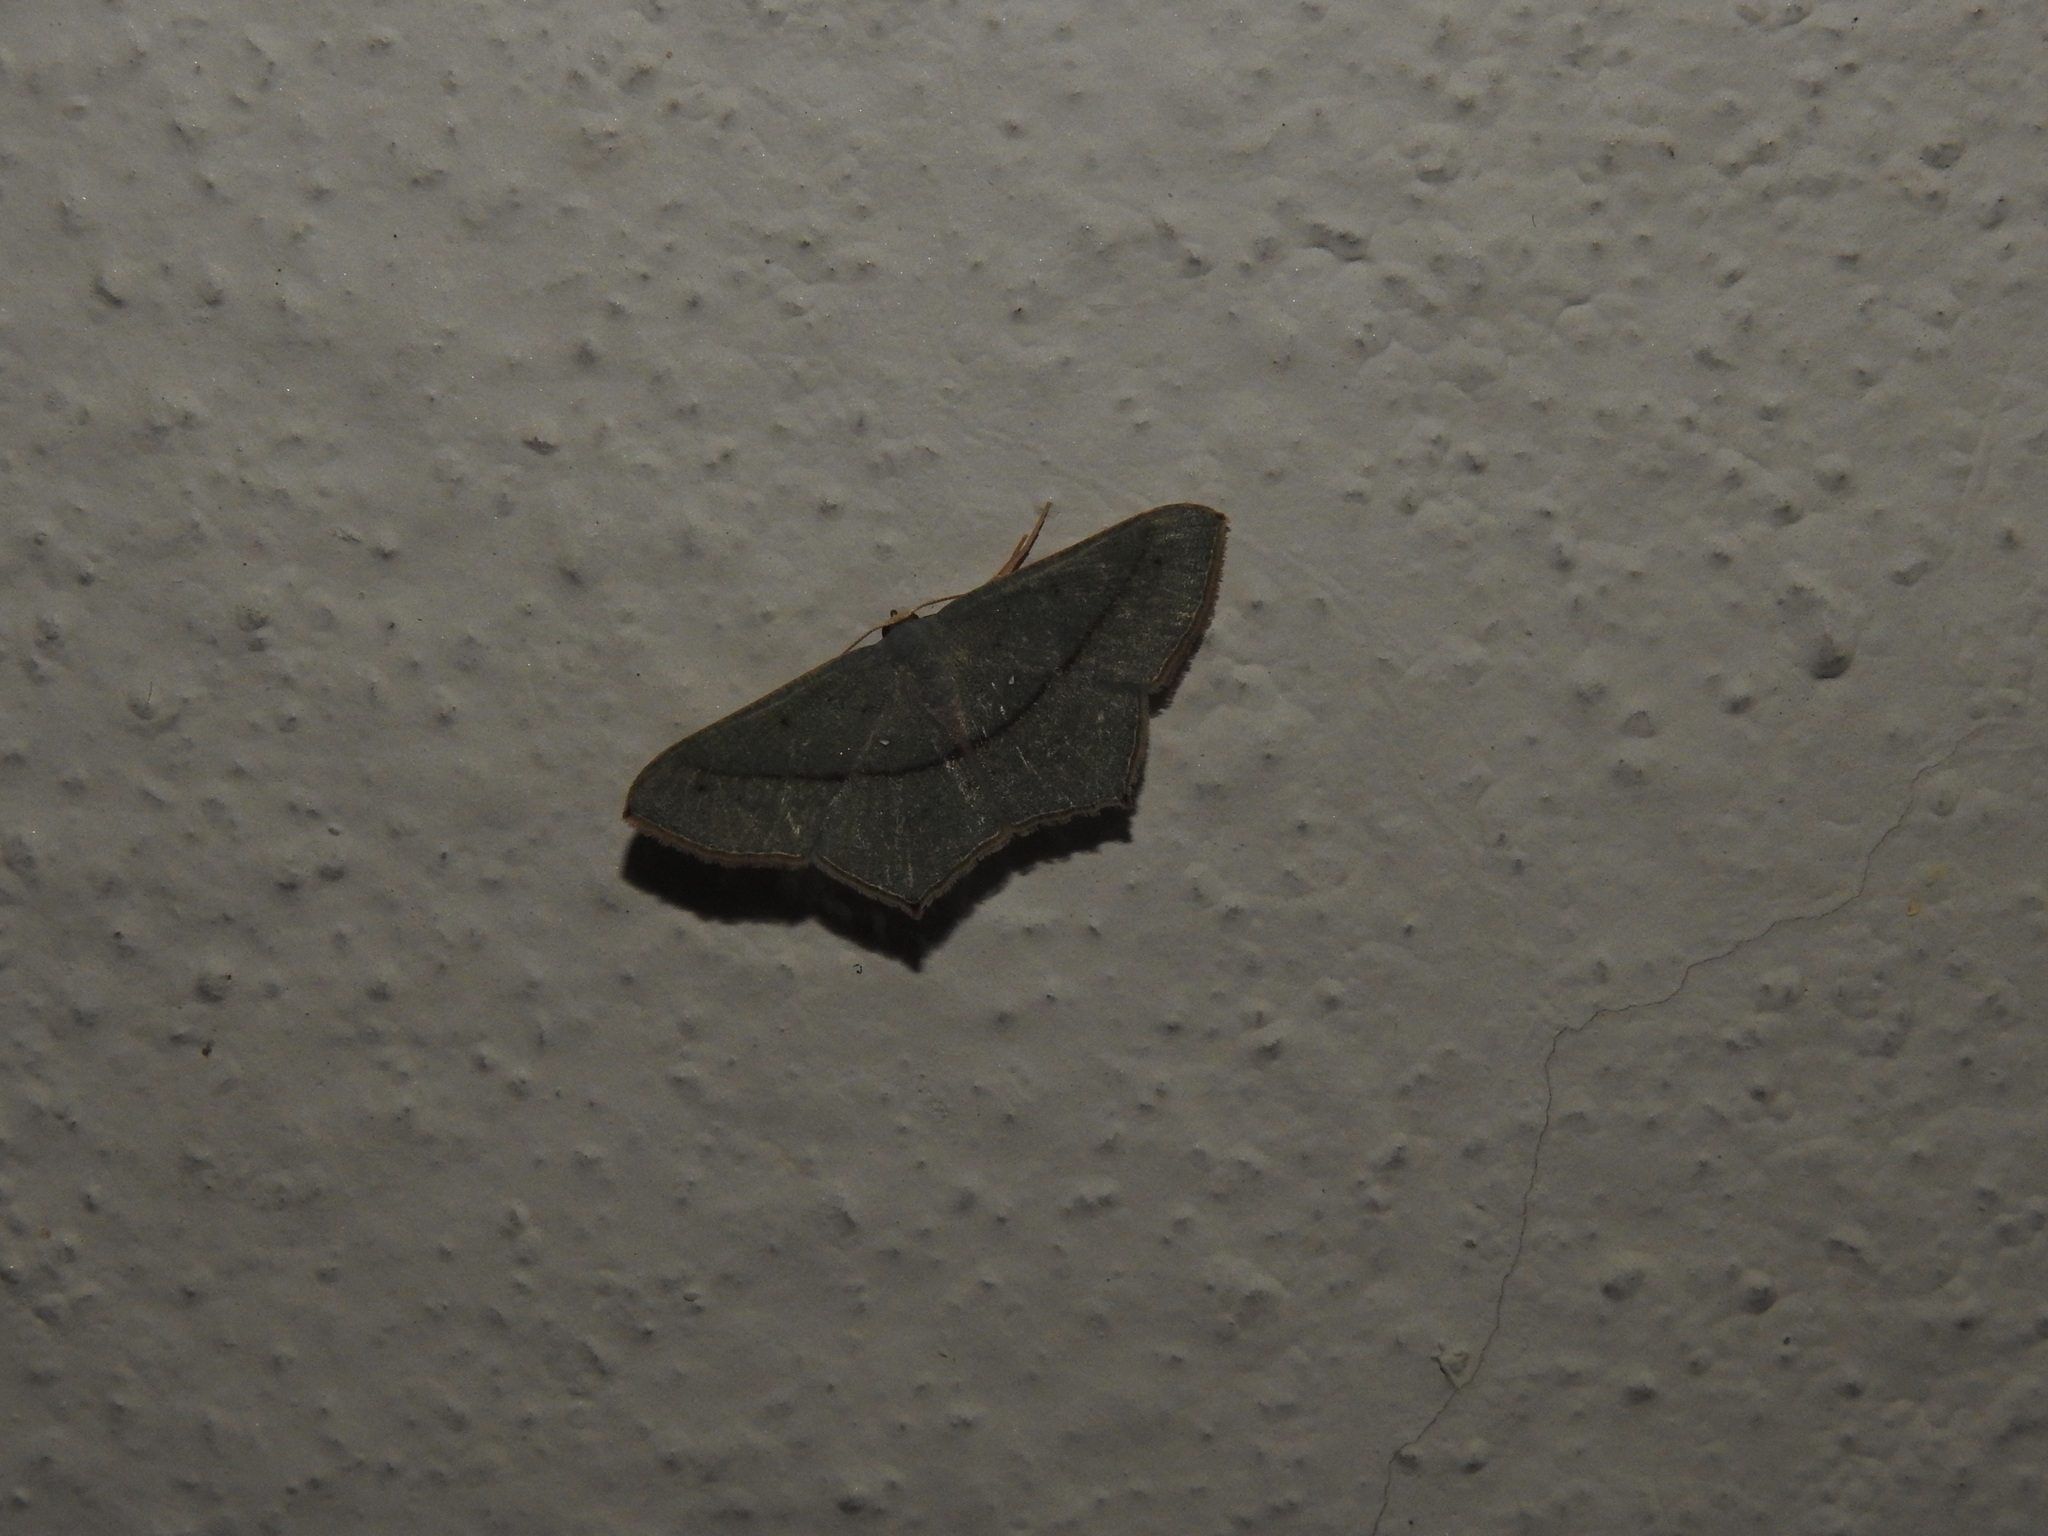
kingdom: Animalia
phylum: Arthropoda
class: Insecta
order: Lepidoptera
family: Geometridae
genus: Traminda
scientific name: Traminda mundissima
